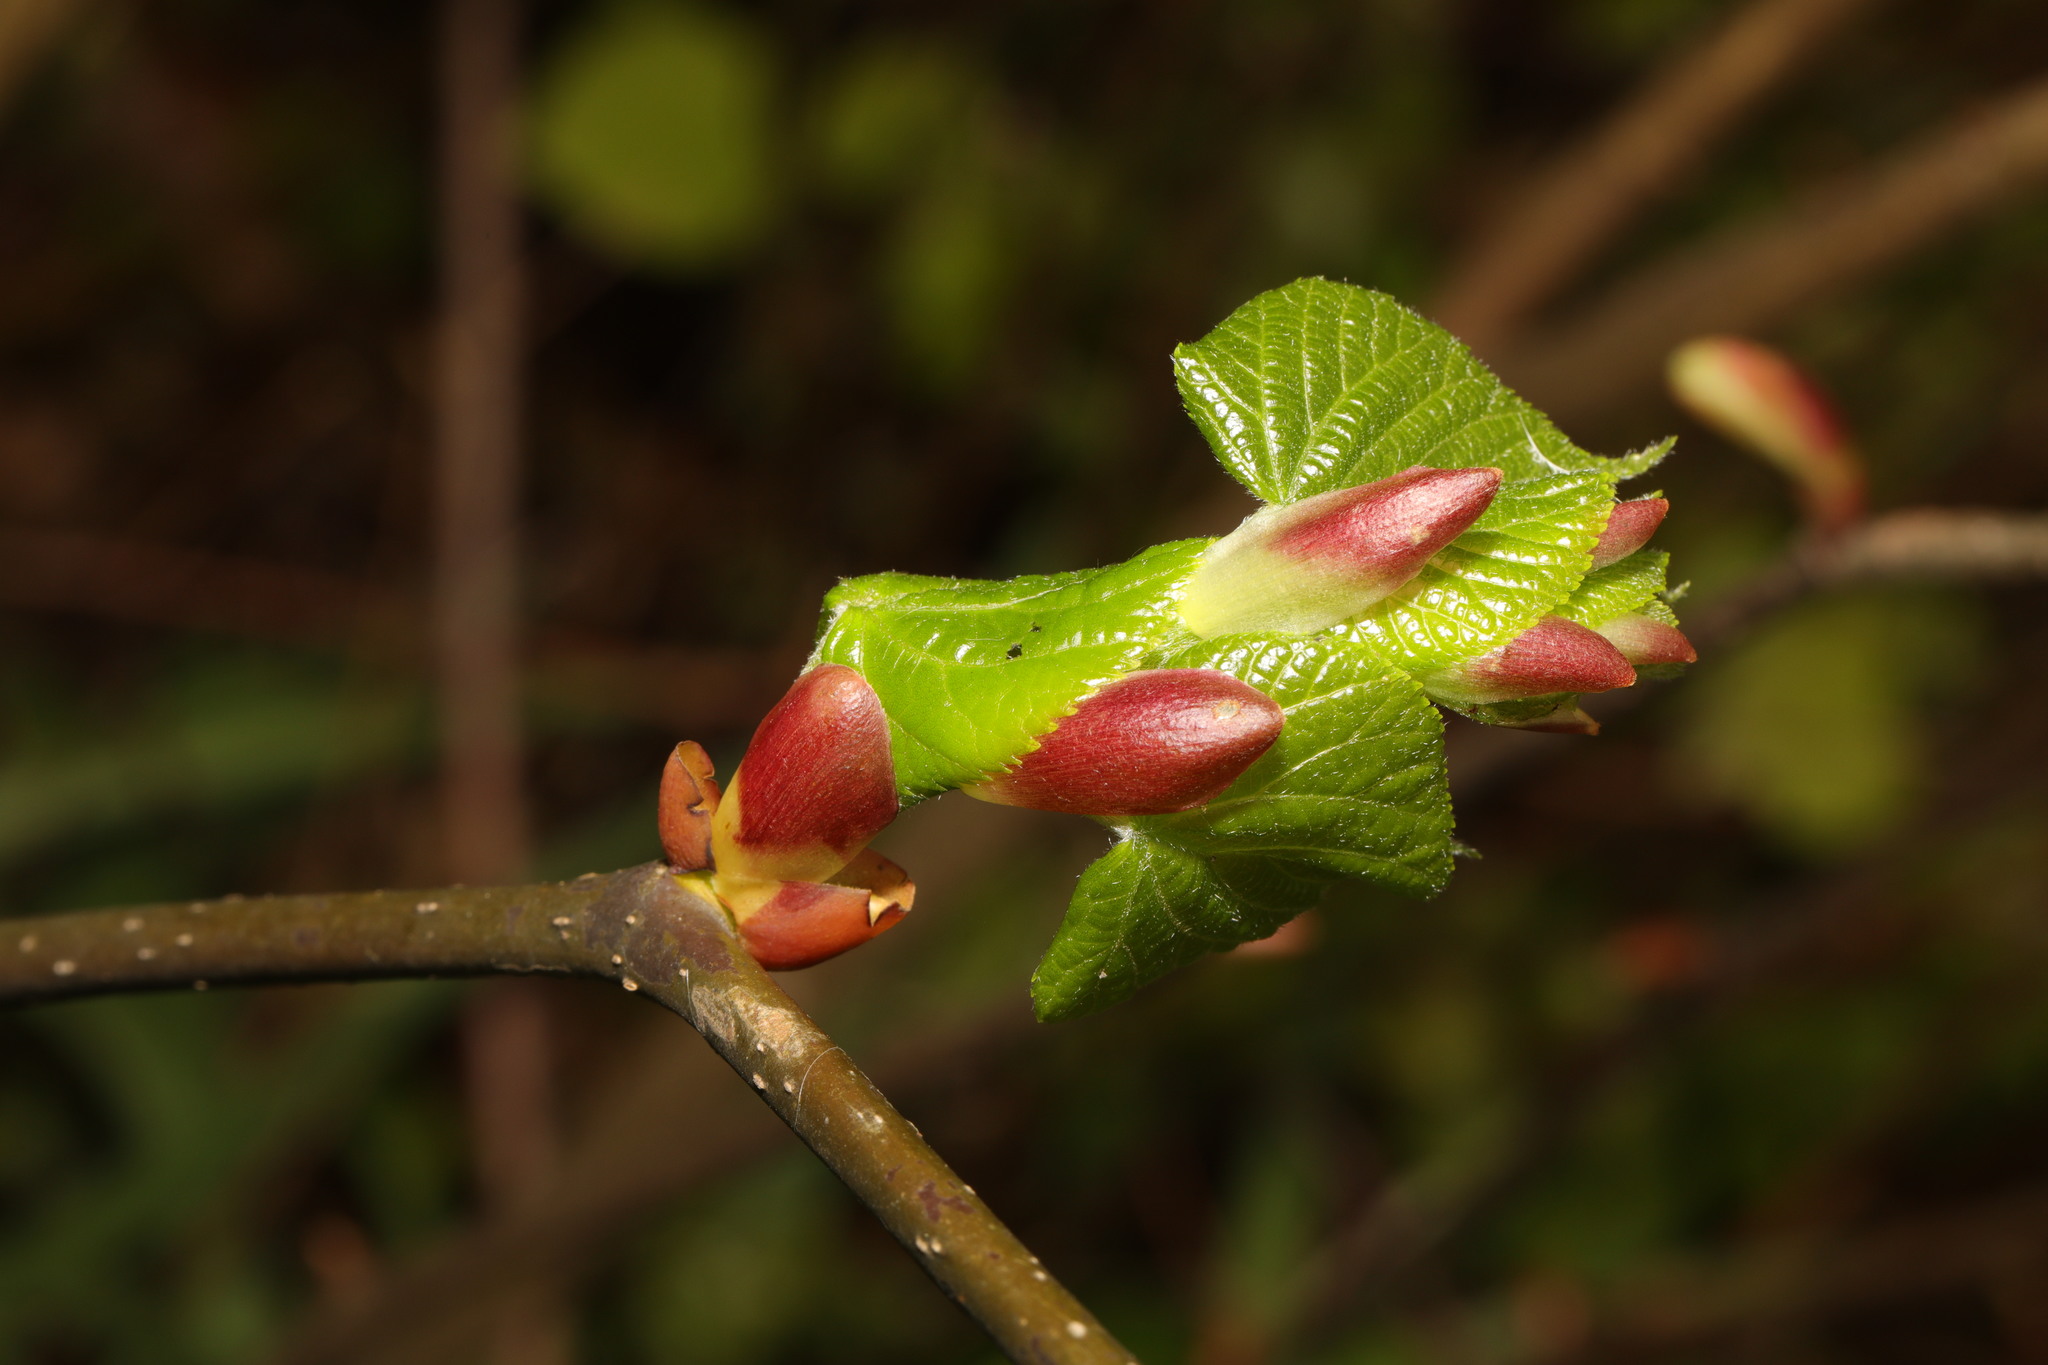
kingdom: Plantae
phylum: Tracheophyta
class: Magnoliopsida
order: Malvales
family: Malvaceae
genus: Tilia
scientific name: Tilia europaea
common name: European linden
